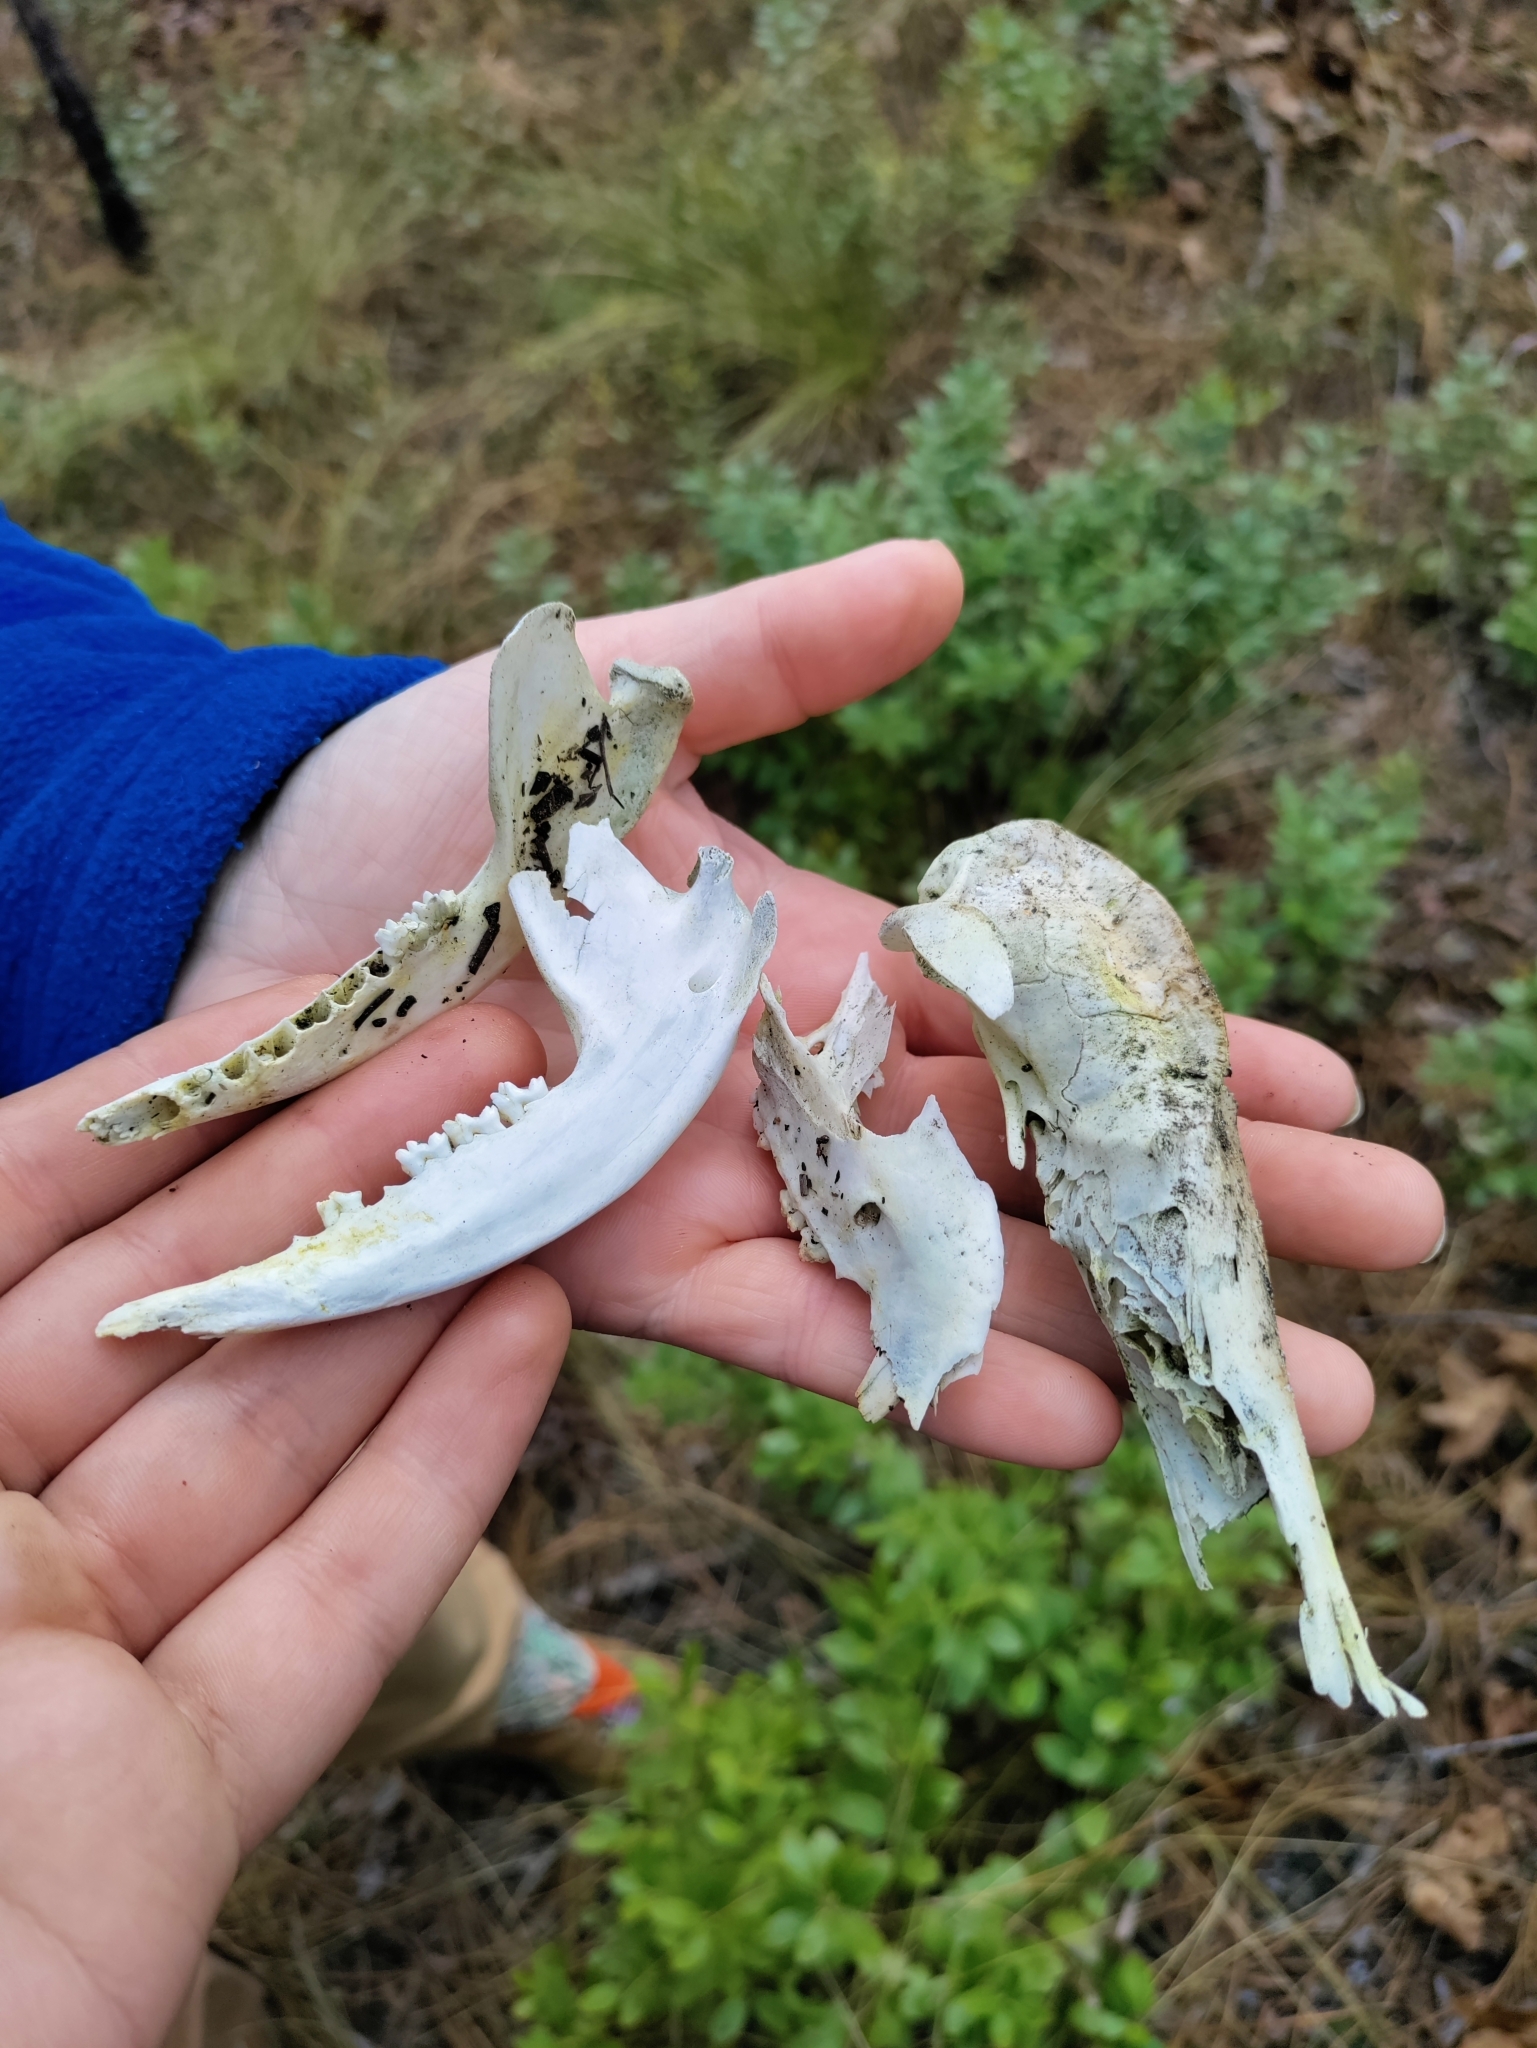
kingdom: Animalia
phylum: Chordata
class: Mammalia
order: Didelphimorphia
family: Didelphidae
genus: Didelphis
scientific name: Didelphis virginiana
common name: Virginia opossum
